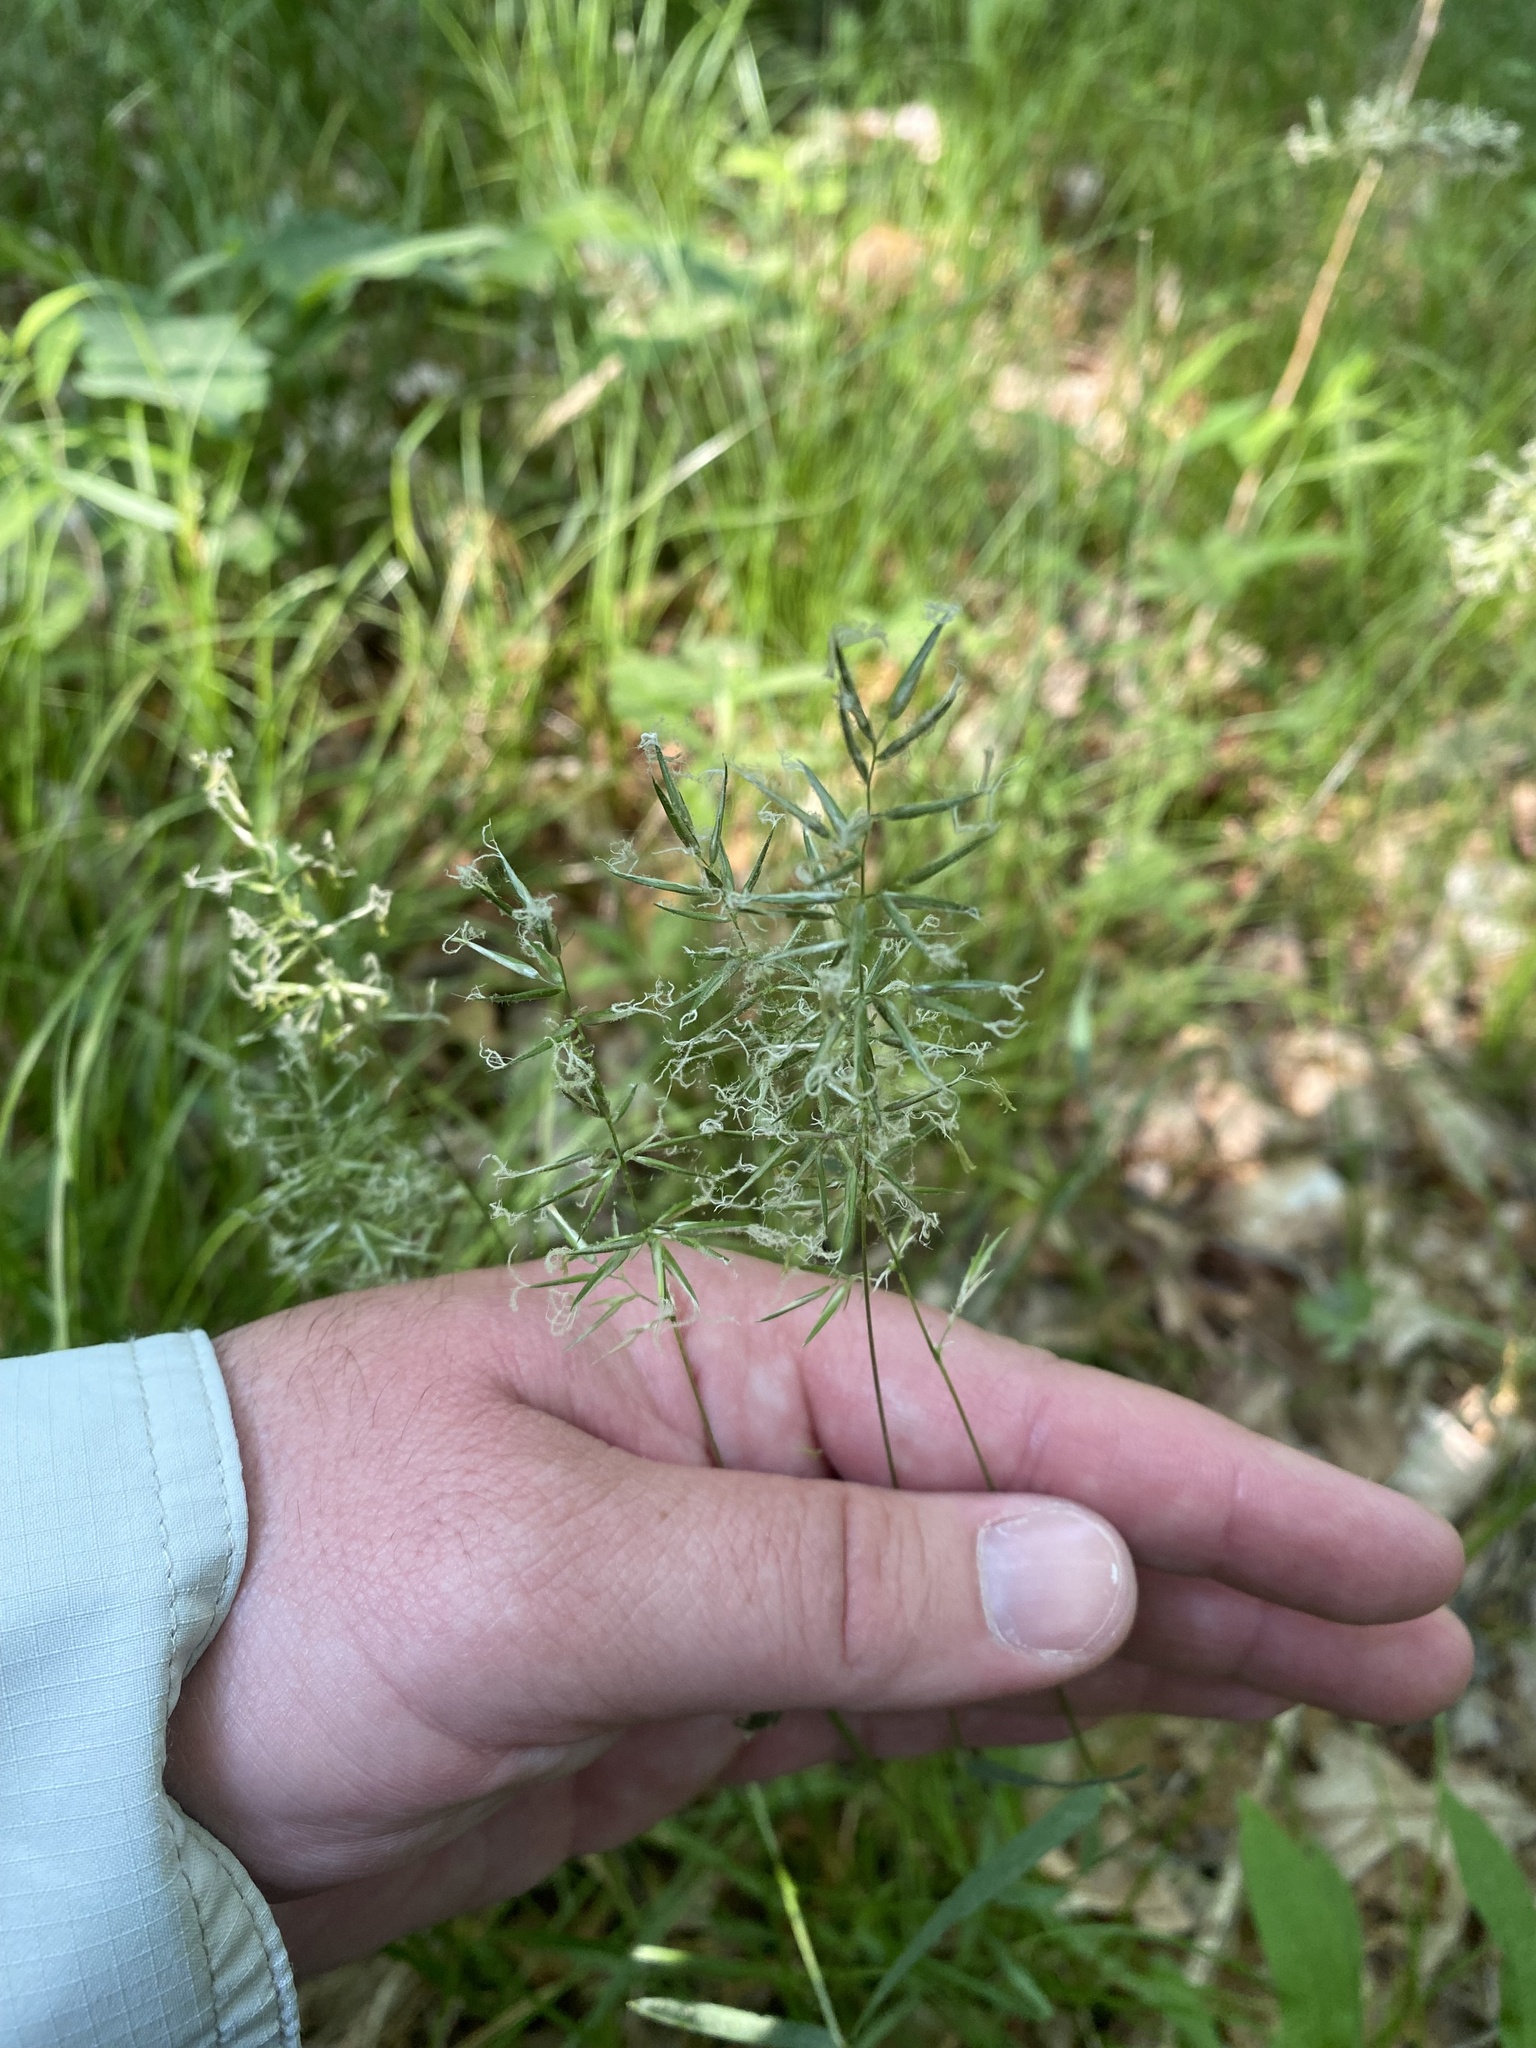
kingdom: Plantae
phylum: Tracheophyta
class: Liliopsida
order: Poales
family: Poaceae
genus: Anthoxanthum
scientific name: Anthoxanthum odoratum
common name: Sweet vernalgrass
